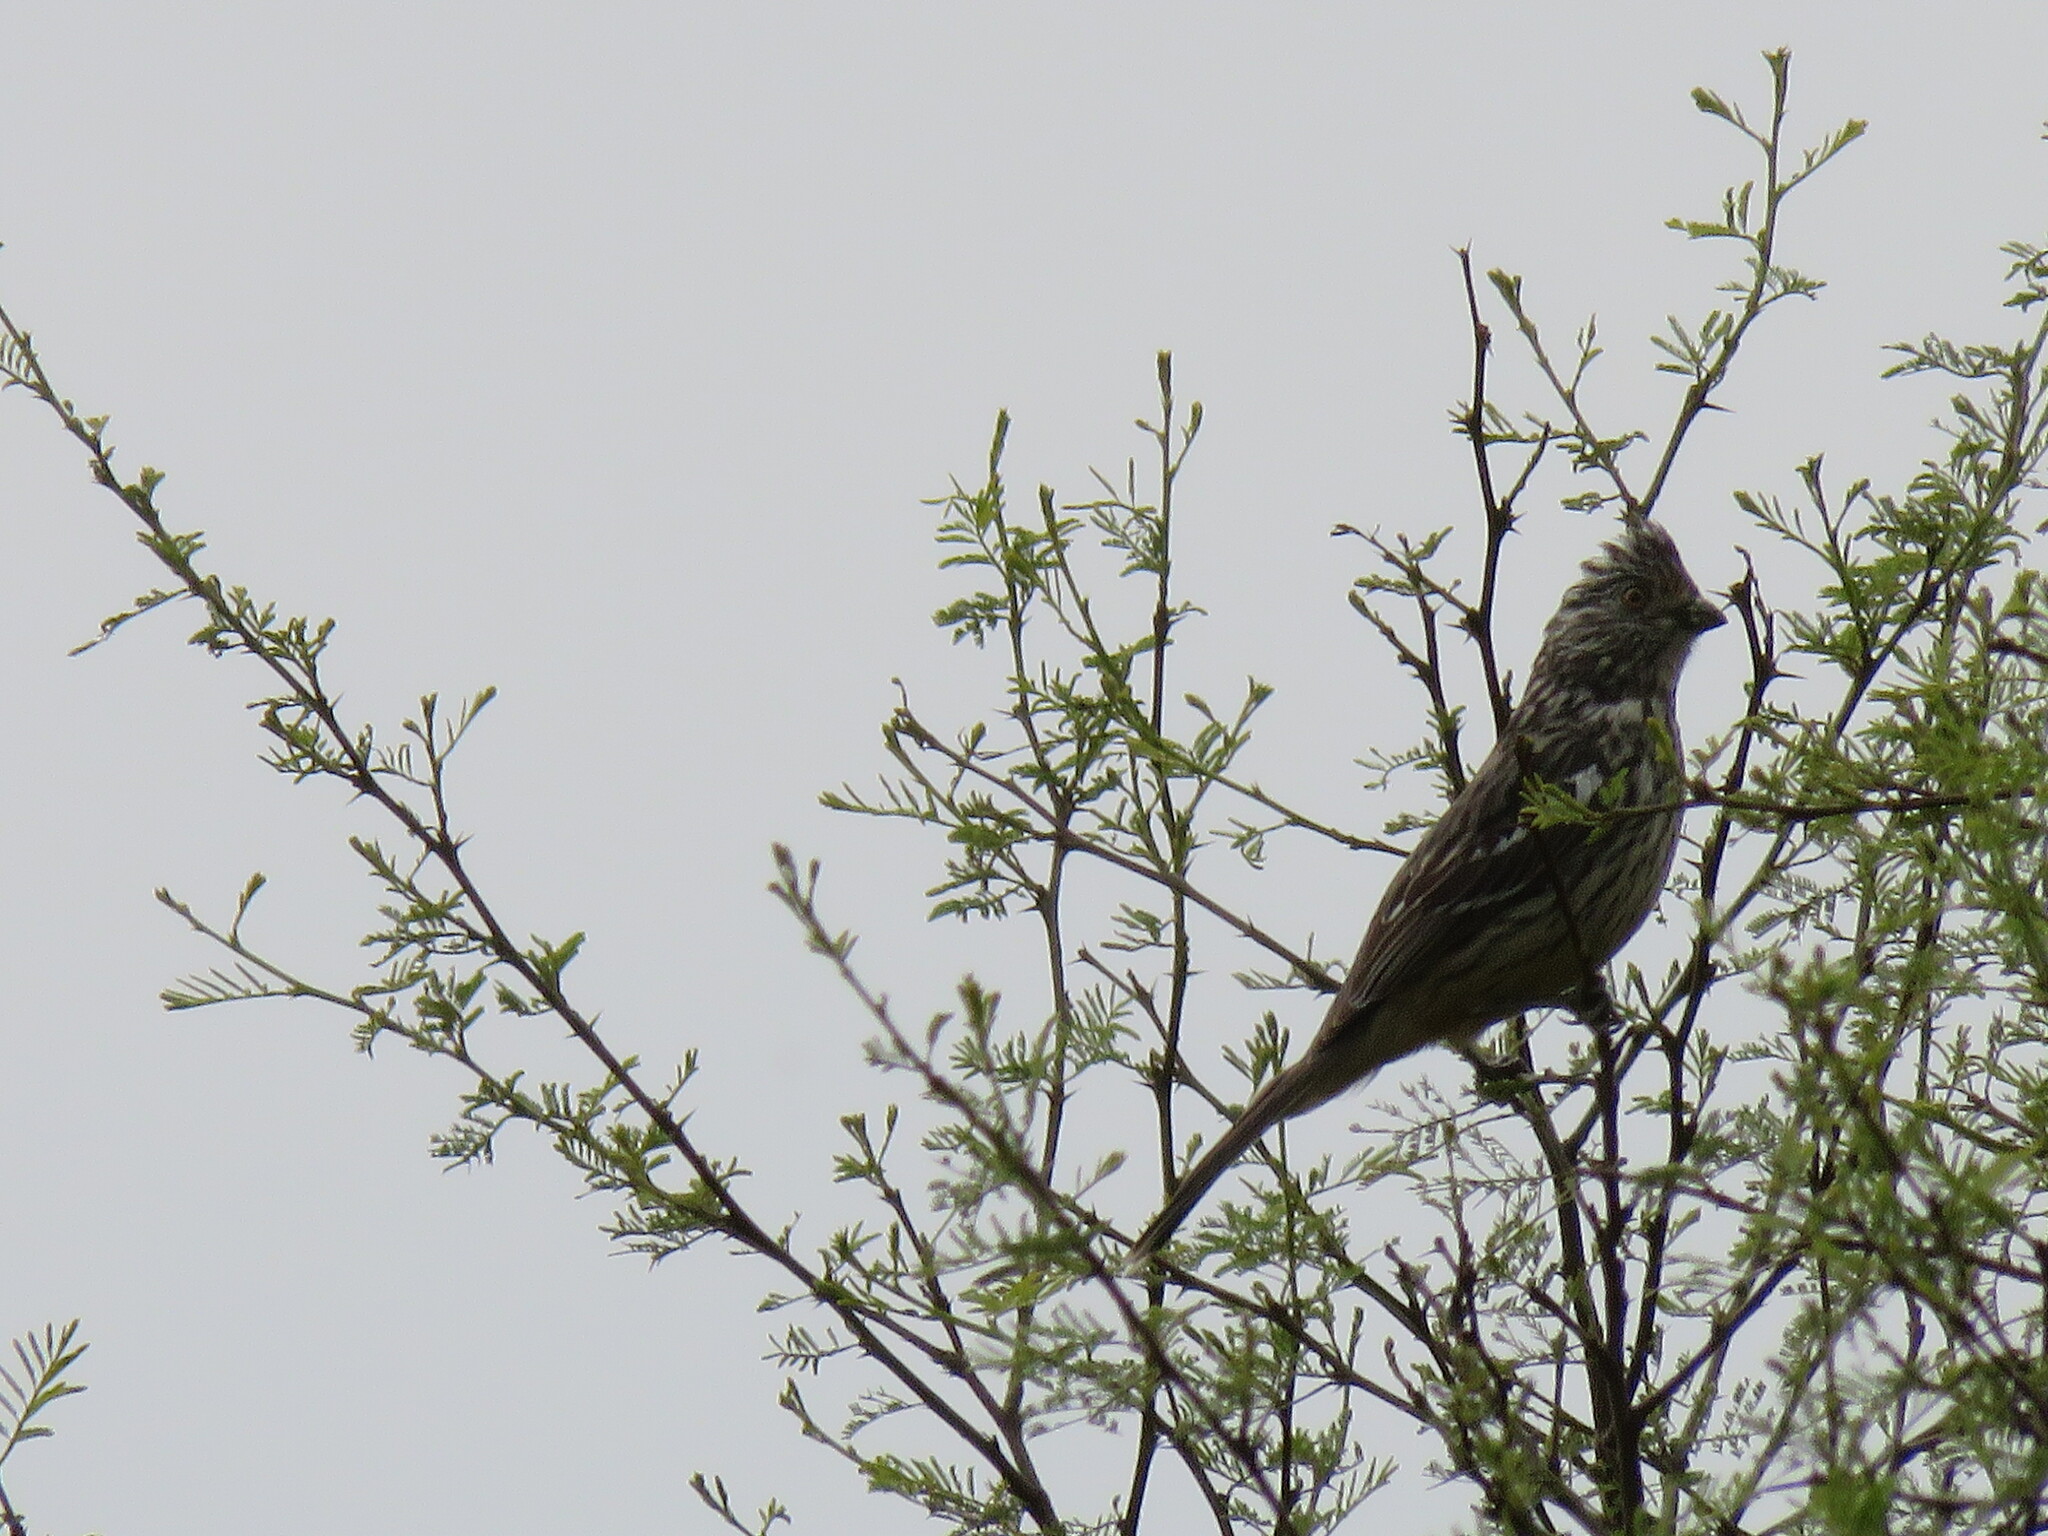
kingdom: Animalia
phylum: Chordata
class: Aves
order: Passeriformes
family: Cotingidae
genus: Phytotoma
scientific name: Phytotoma rutila
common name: White-tipped plantcutter
